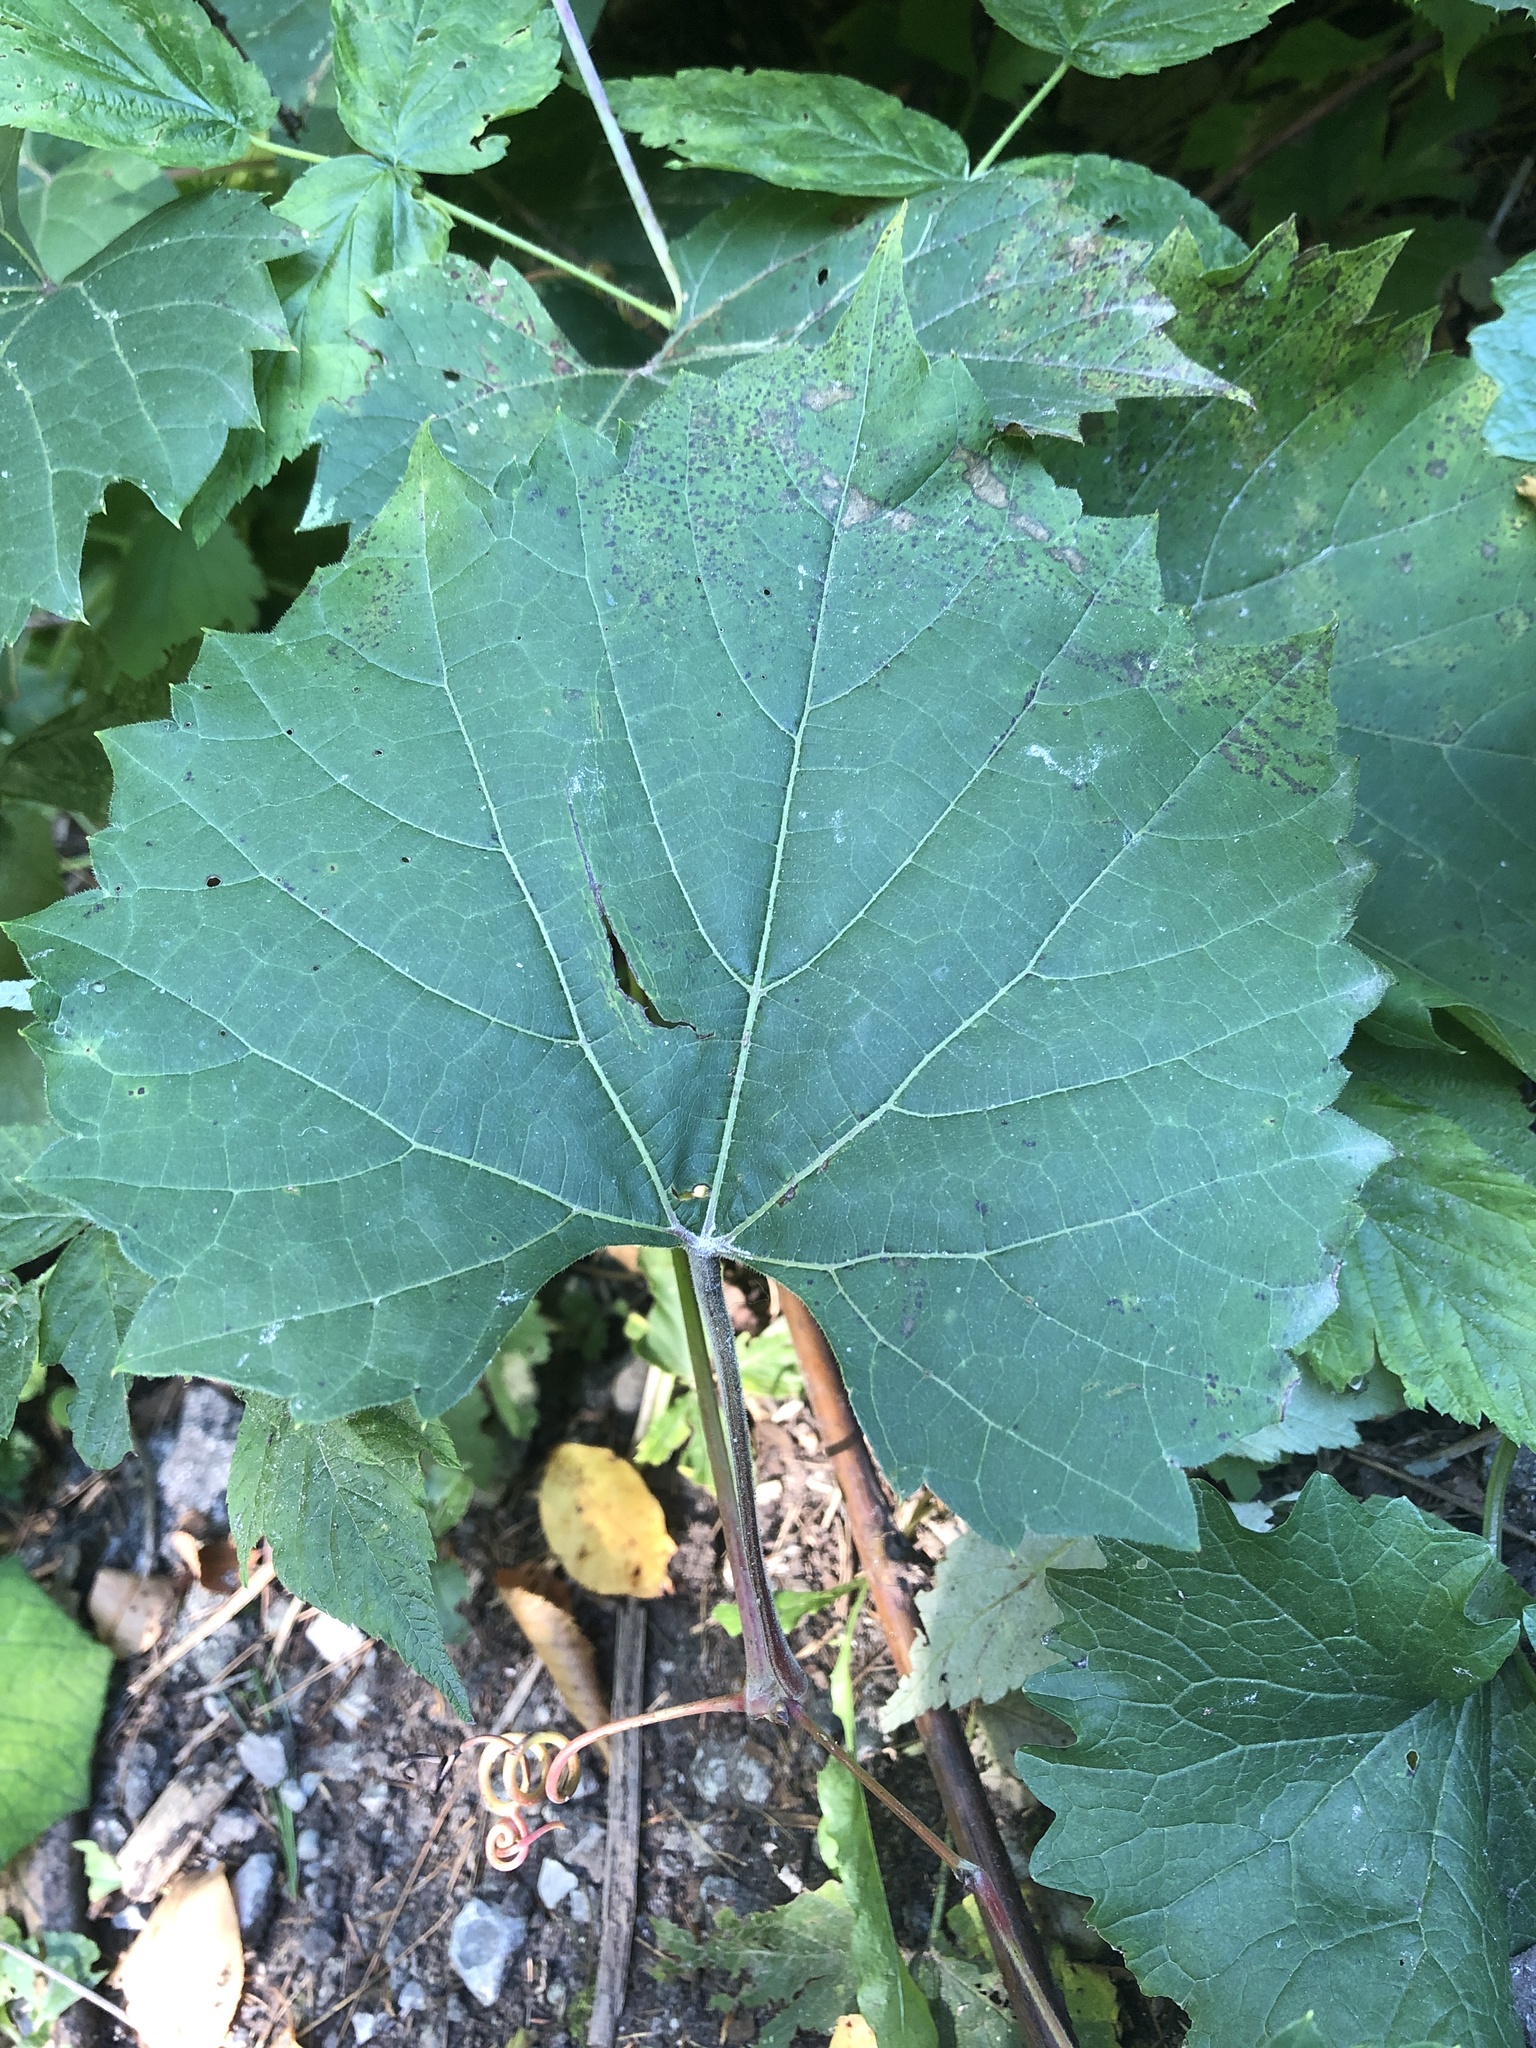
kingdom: Plantae
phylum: Tracheophyta
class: Magnoliopsida
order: Vitales
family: Vitaceae
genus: Vitis
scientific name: Vitis riparia
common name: Frost grape
